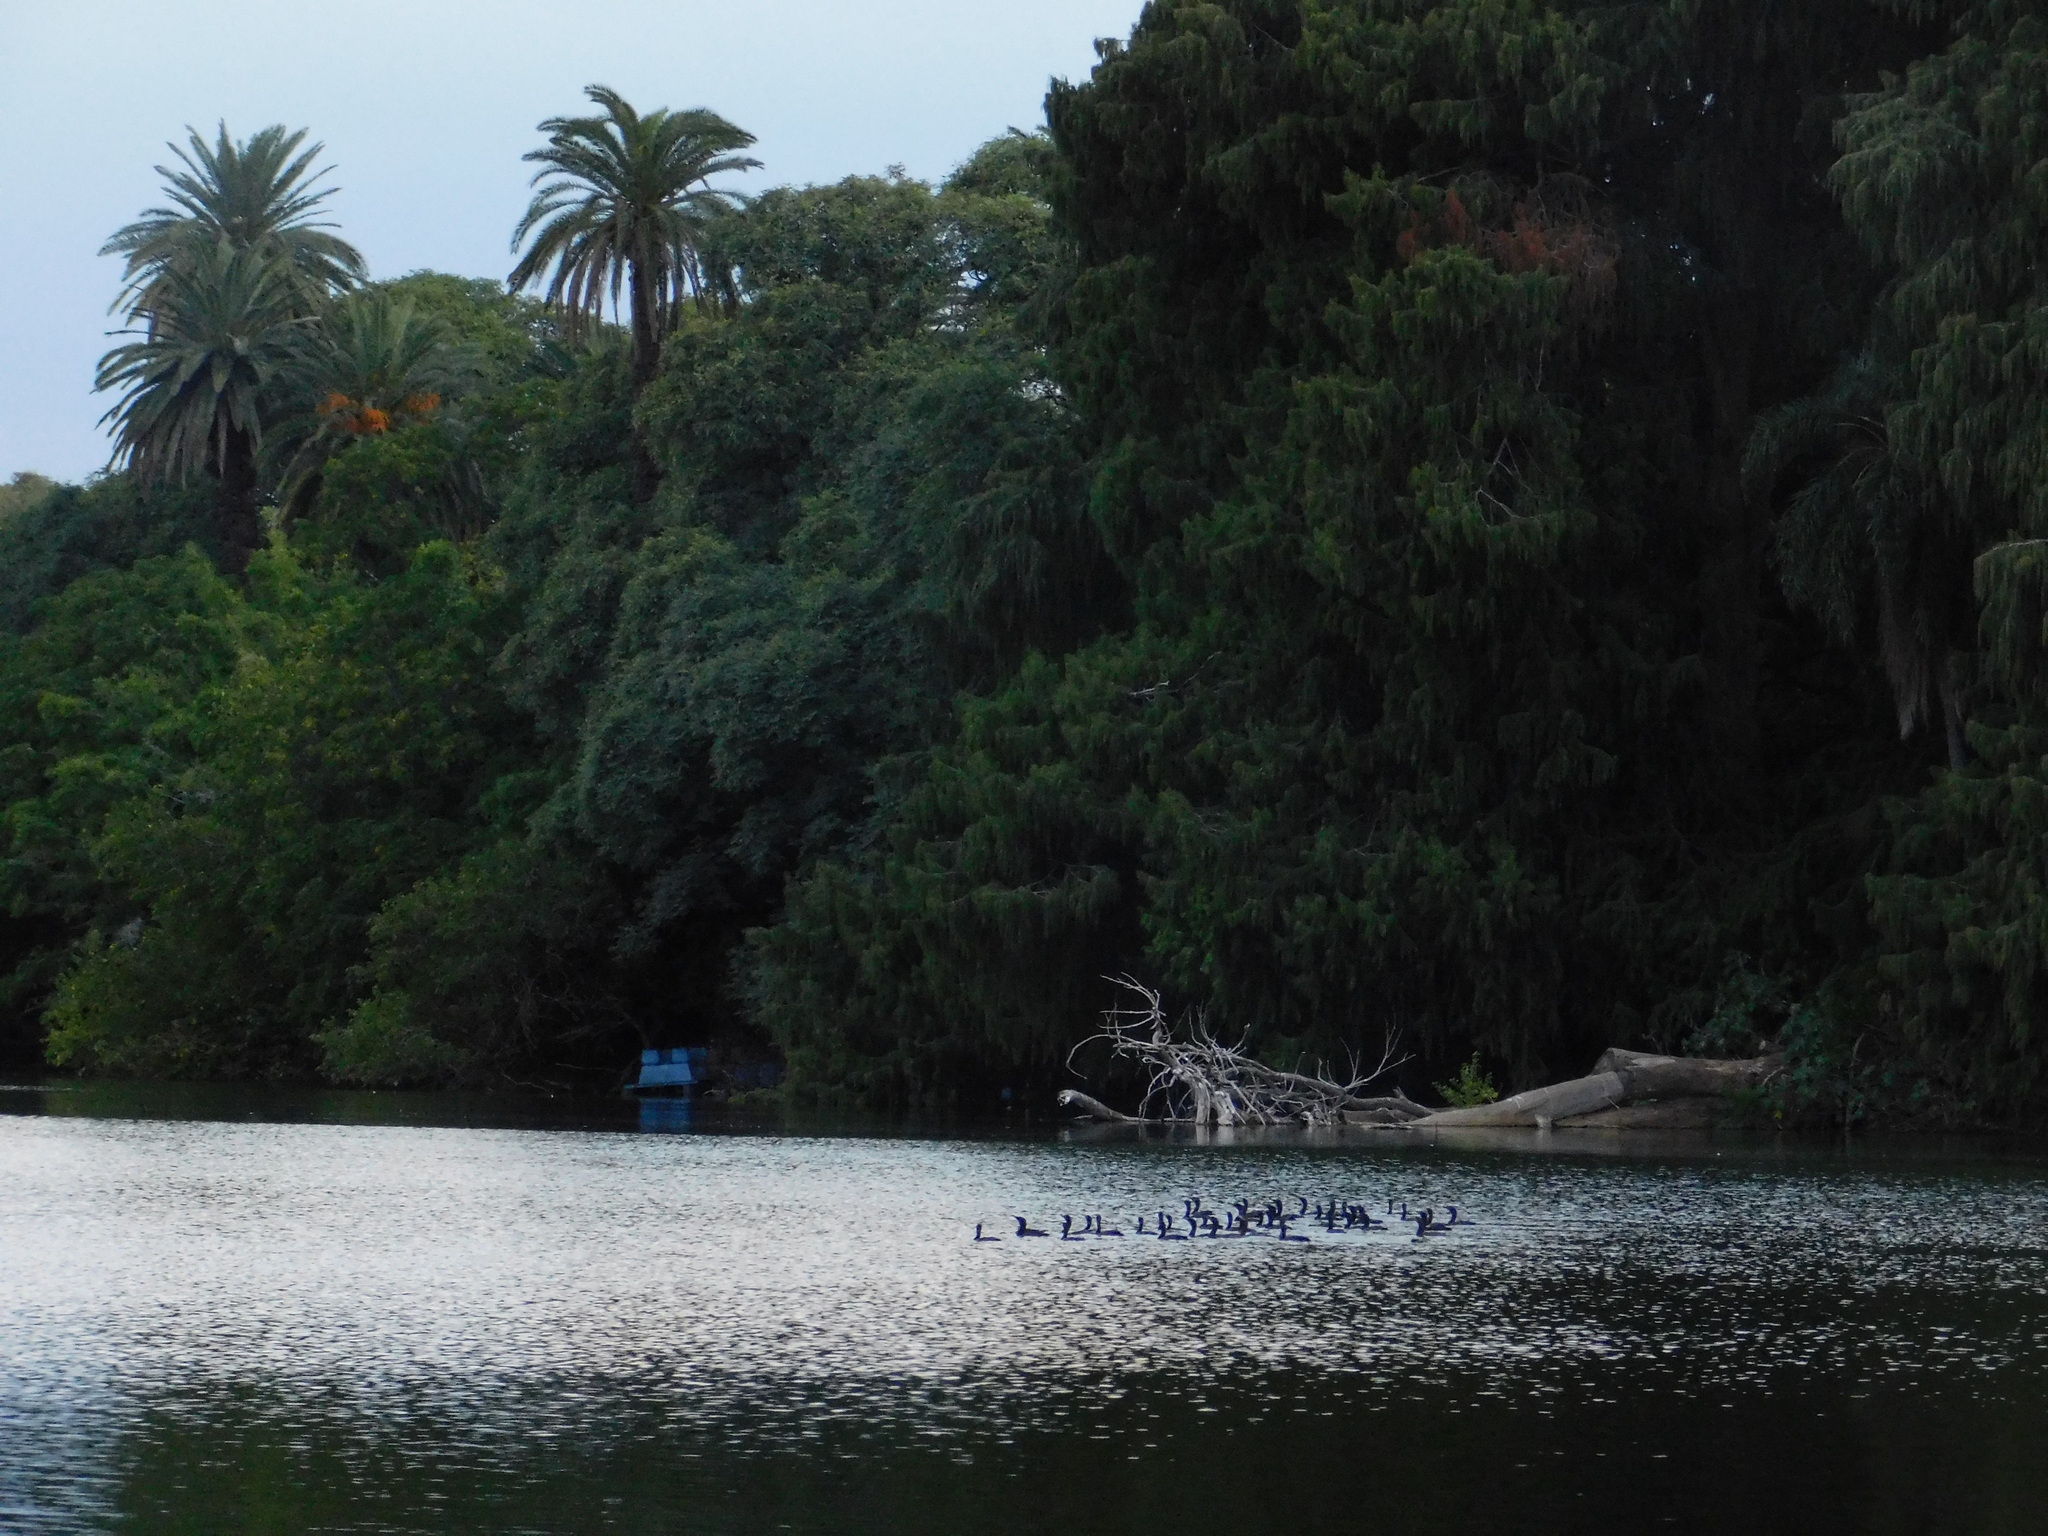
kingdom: Animalia
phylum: Chordata
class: Aves
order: Suliformes
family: Phalacrocoracidae
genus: Phalacrocorax
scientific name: Phalacrocorax brasilianus
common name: Neotropic cormorant
